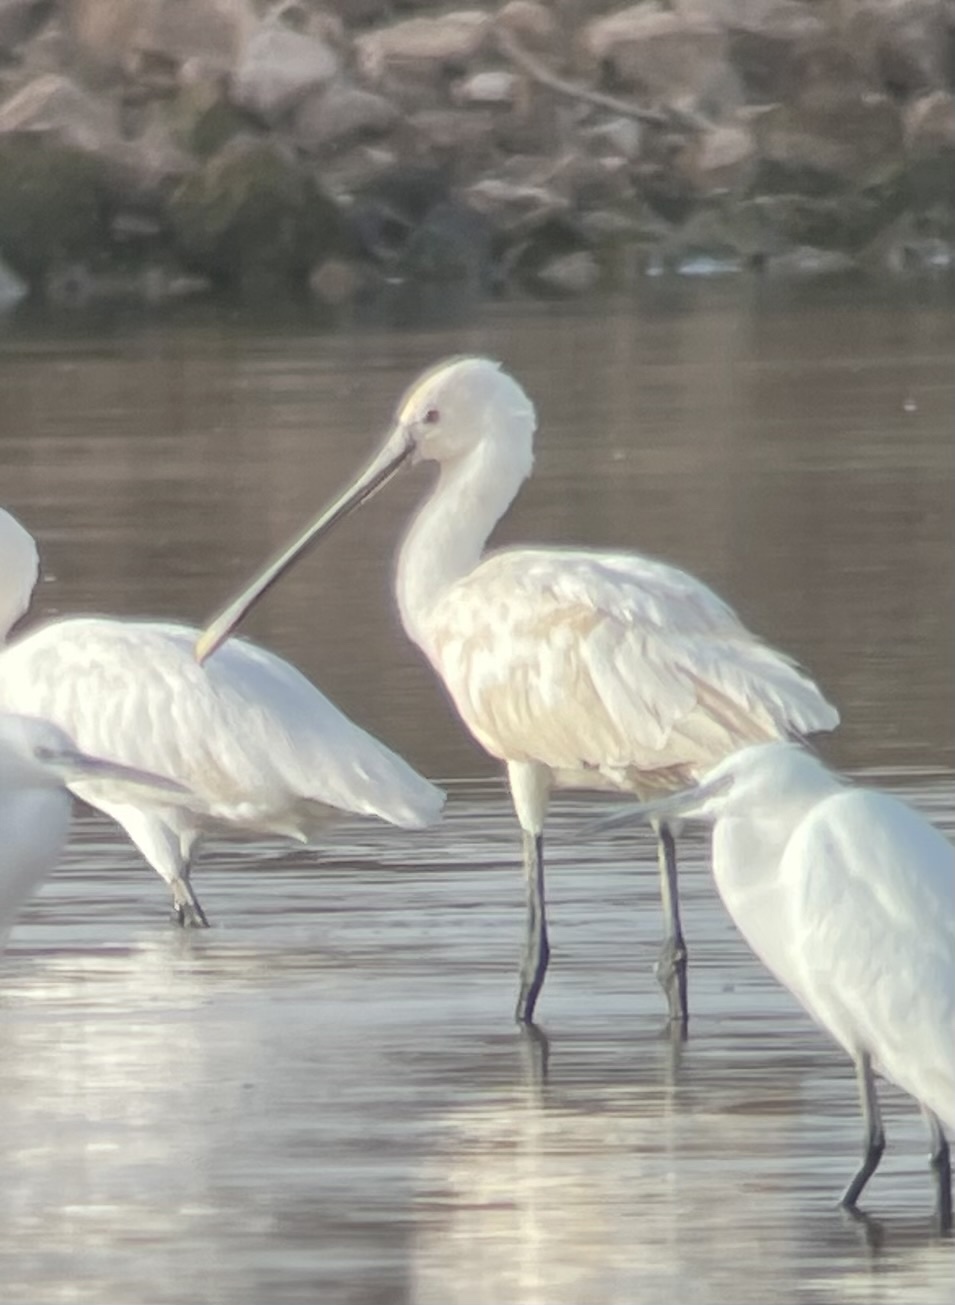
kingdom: Animalia
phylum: Chordata
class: Aves
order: Pelecaniformes
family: Threskiornithidae
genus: Platalea
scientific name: Platalea leucorodia
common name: Eurasian spoonbill
